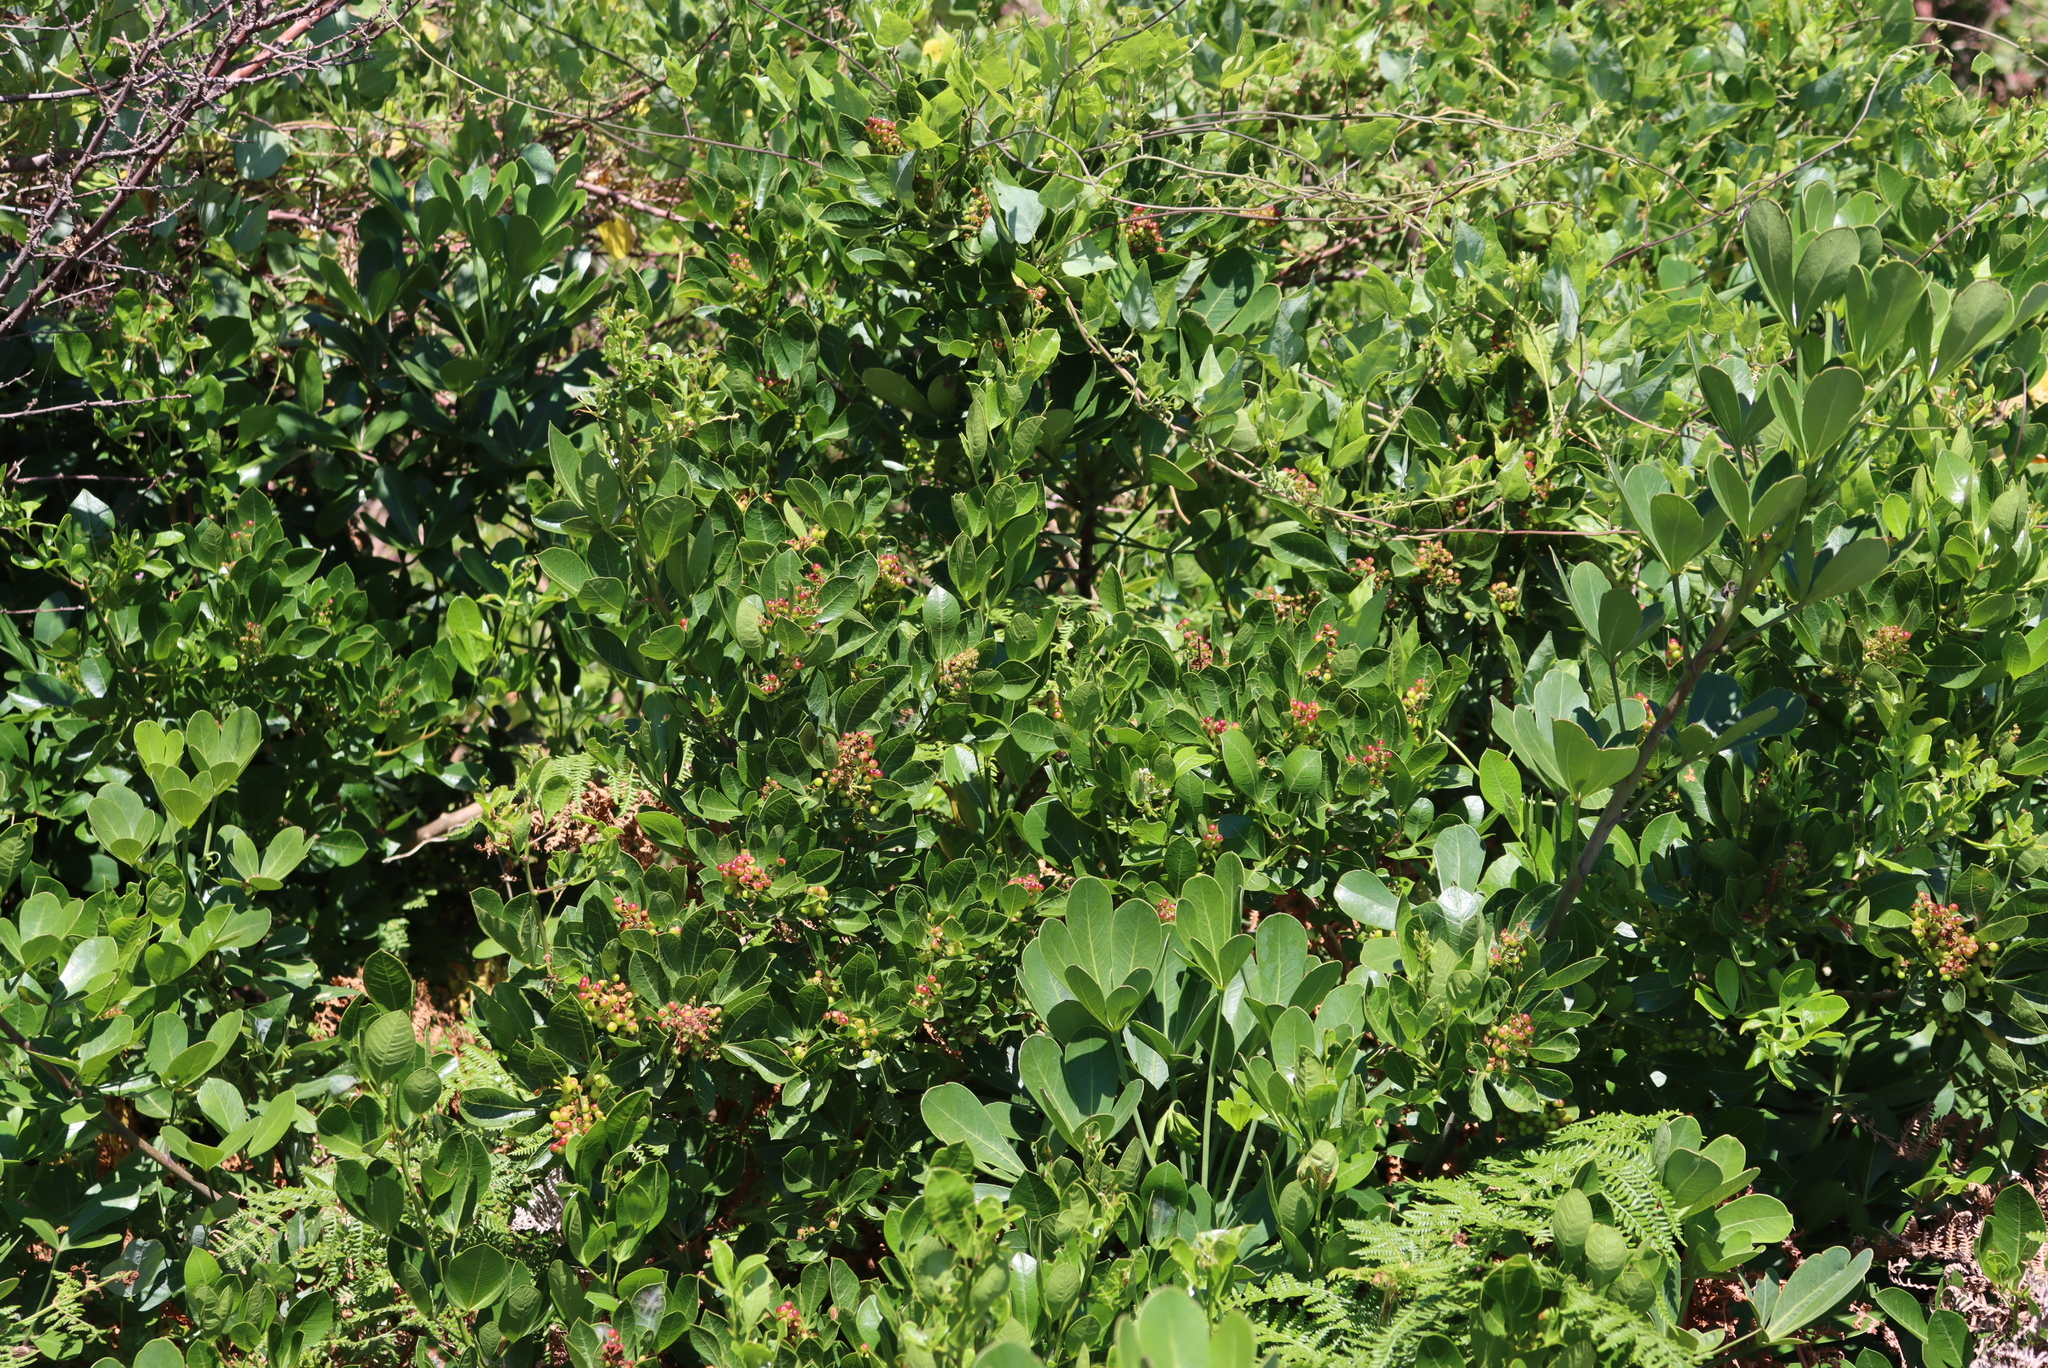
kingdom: Plantae
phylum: Tracheophyta
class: Magnoliopsida
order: Sapindales
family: Anacardiaceae
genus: Searsia
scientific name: Searsia laevigata
